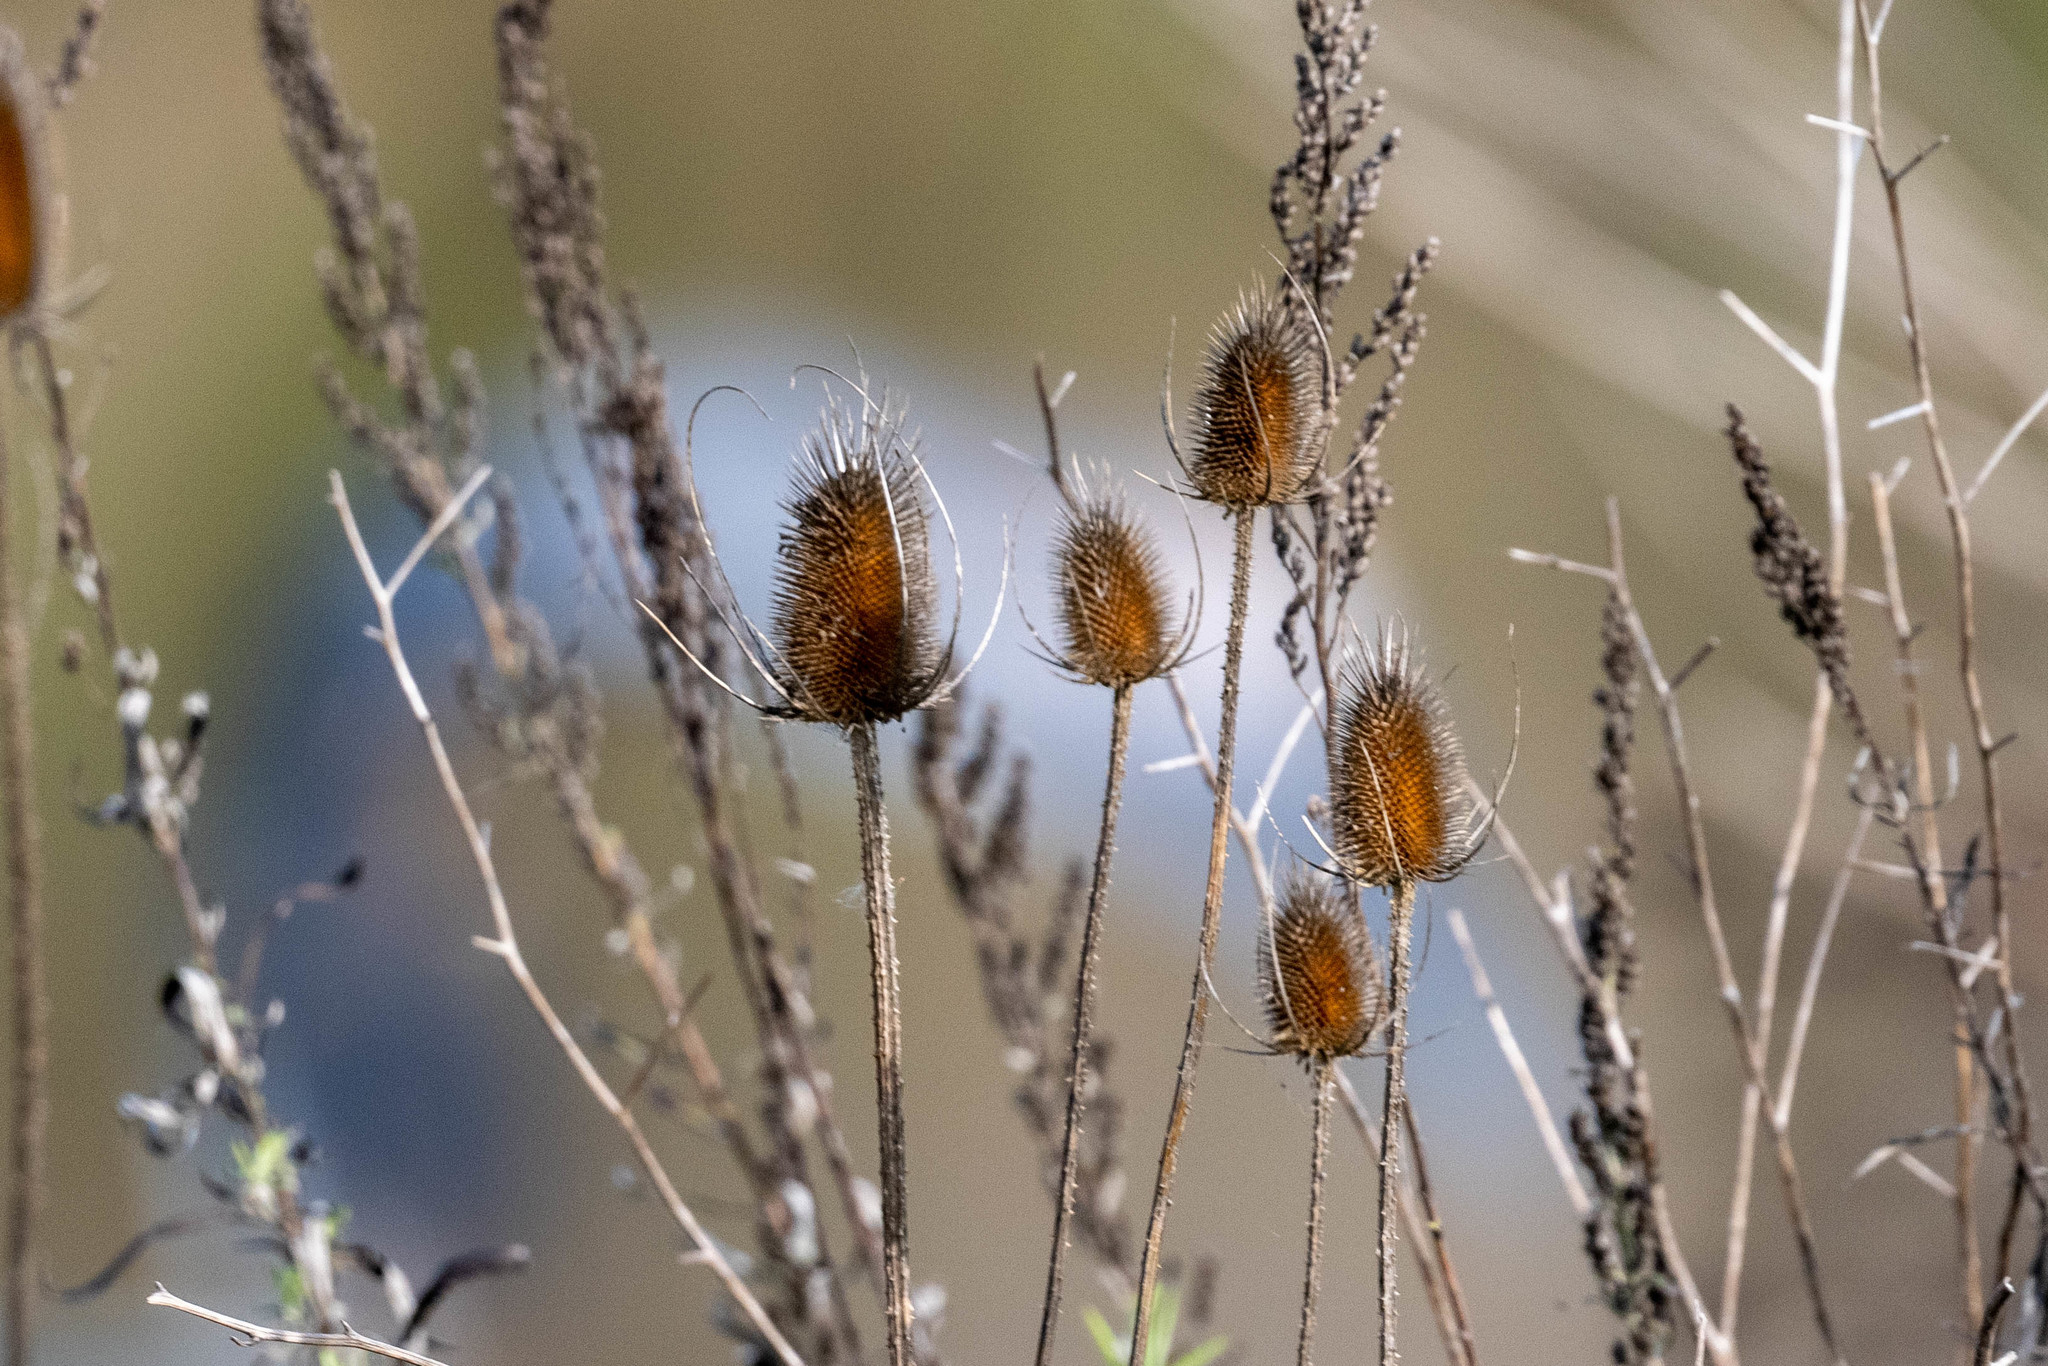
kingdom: Plantae
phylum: Tracheophyta
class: Magnoliopsida
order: Dipsacales
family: Caprifoliaceae
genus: Dipsacus
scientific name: Dipsacus fullonum
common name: Teasel
